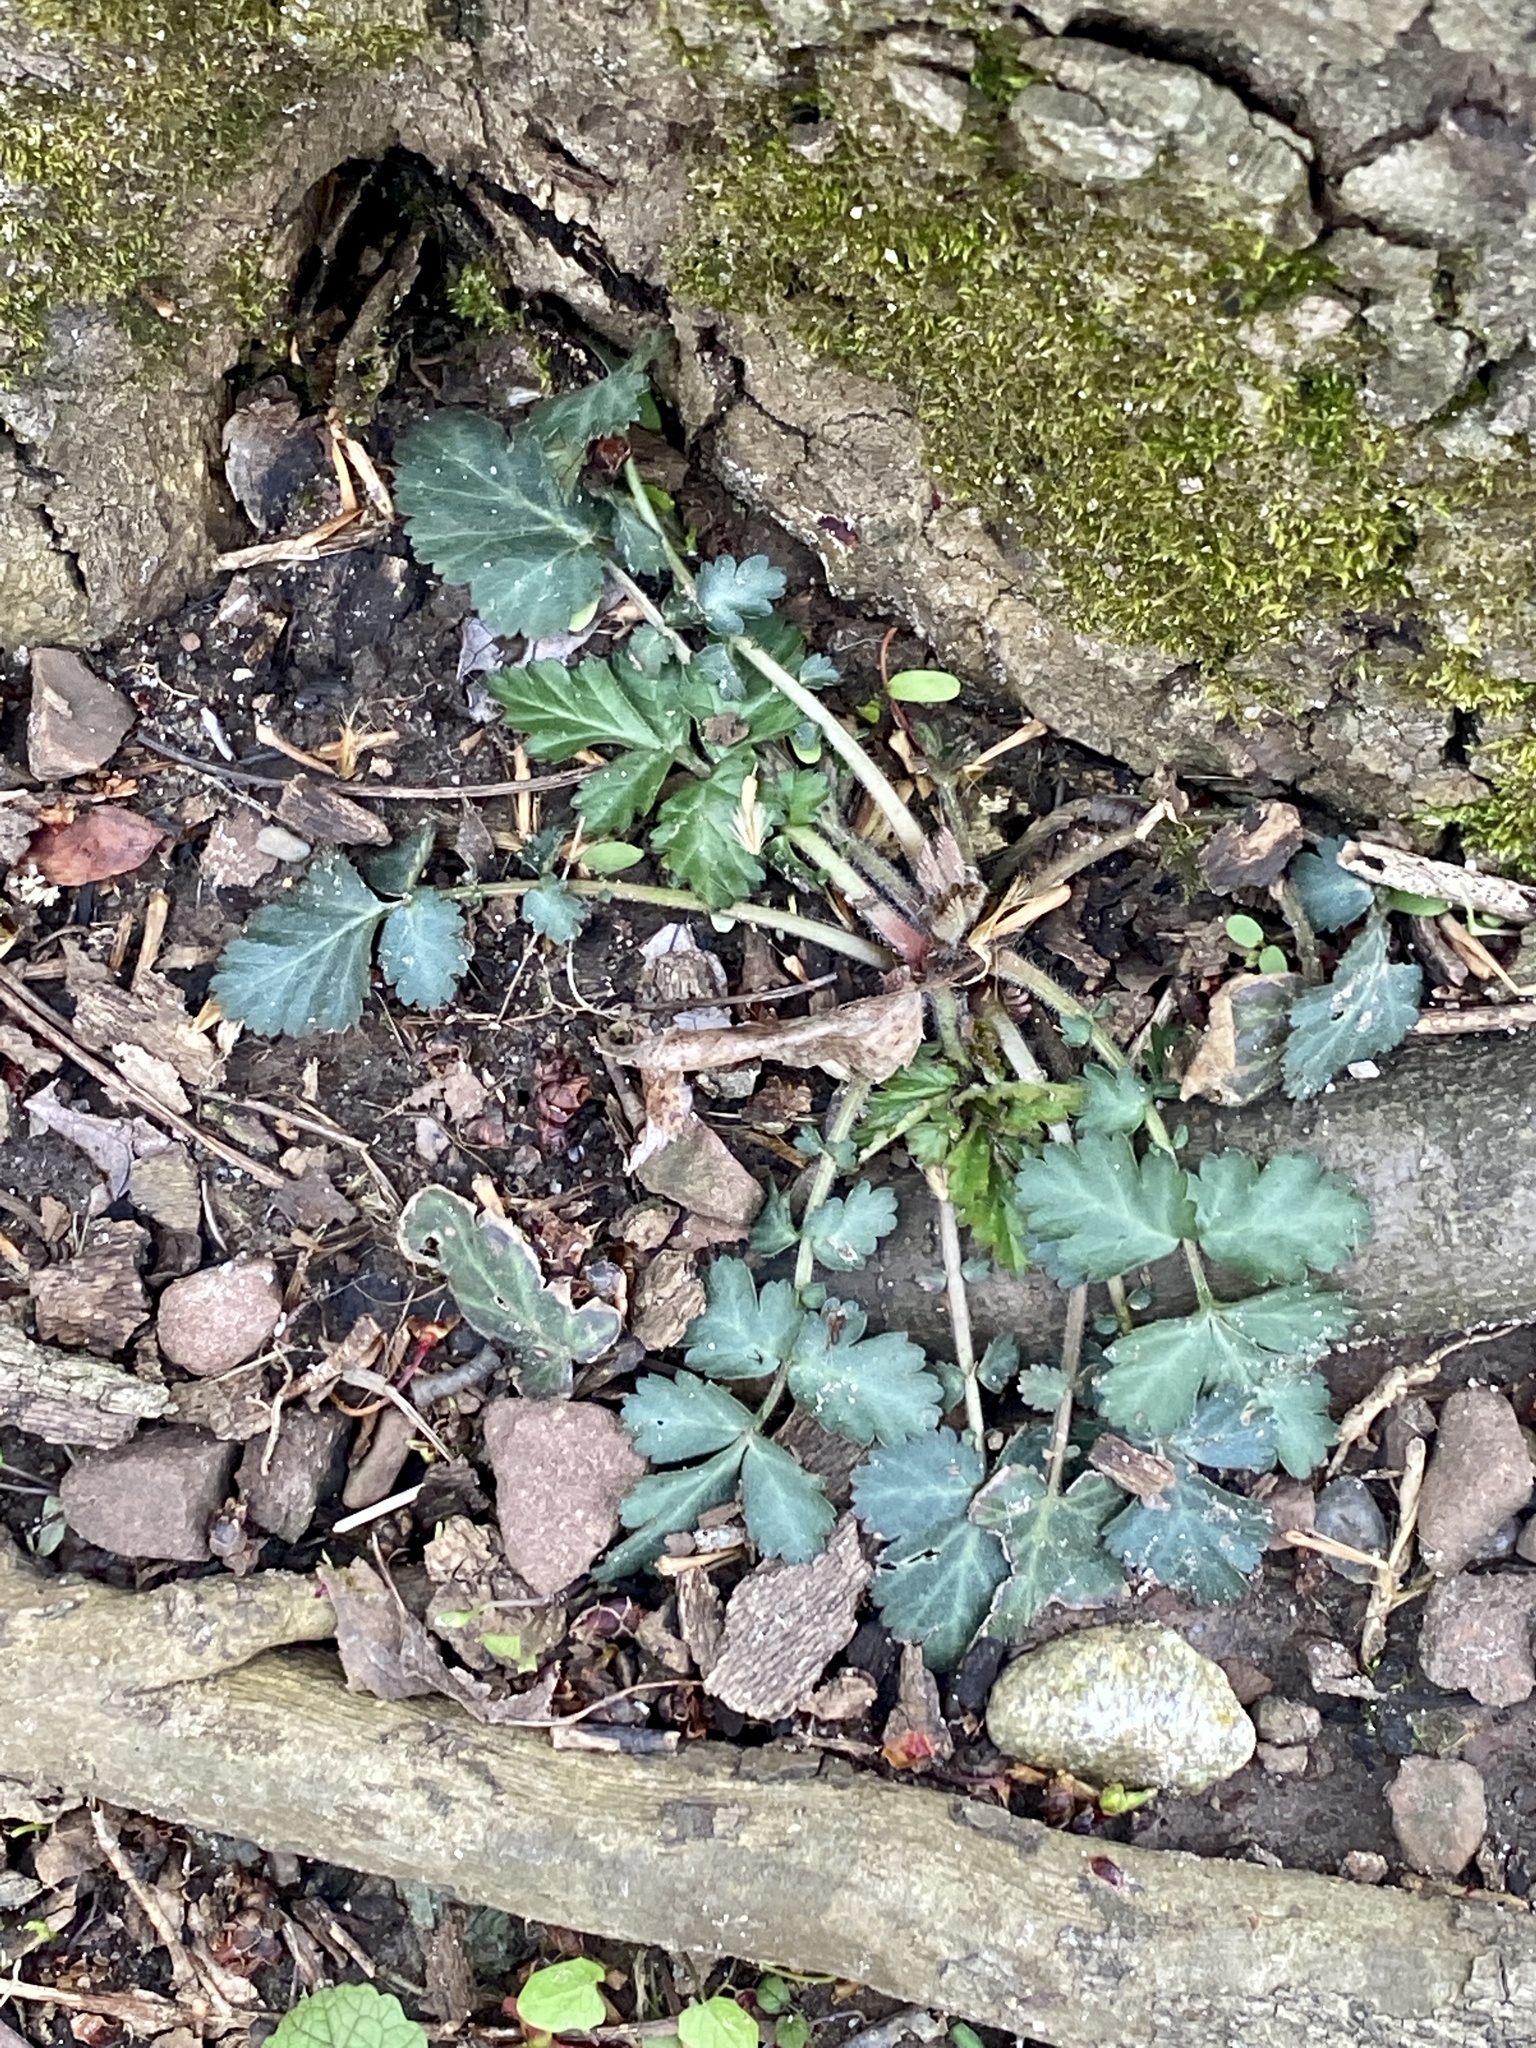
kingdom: Plantae
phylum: Tracheophyta
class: Magnoliopsida
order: Rosales
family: Rosaceae
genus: Geum
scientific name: Geum canadense
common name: White avens
